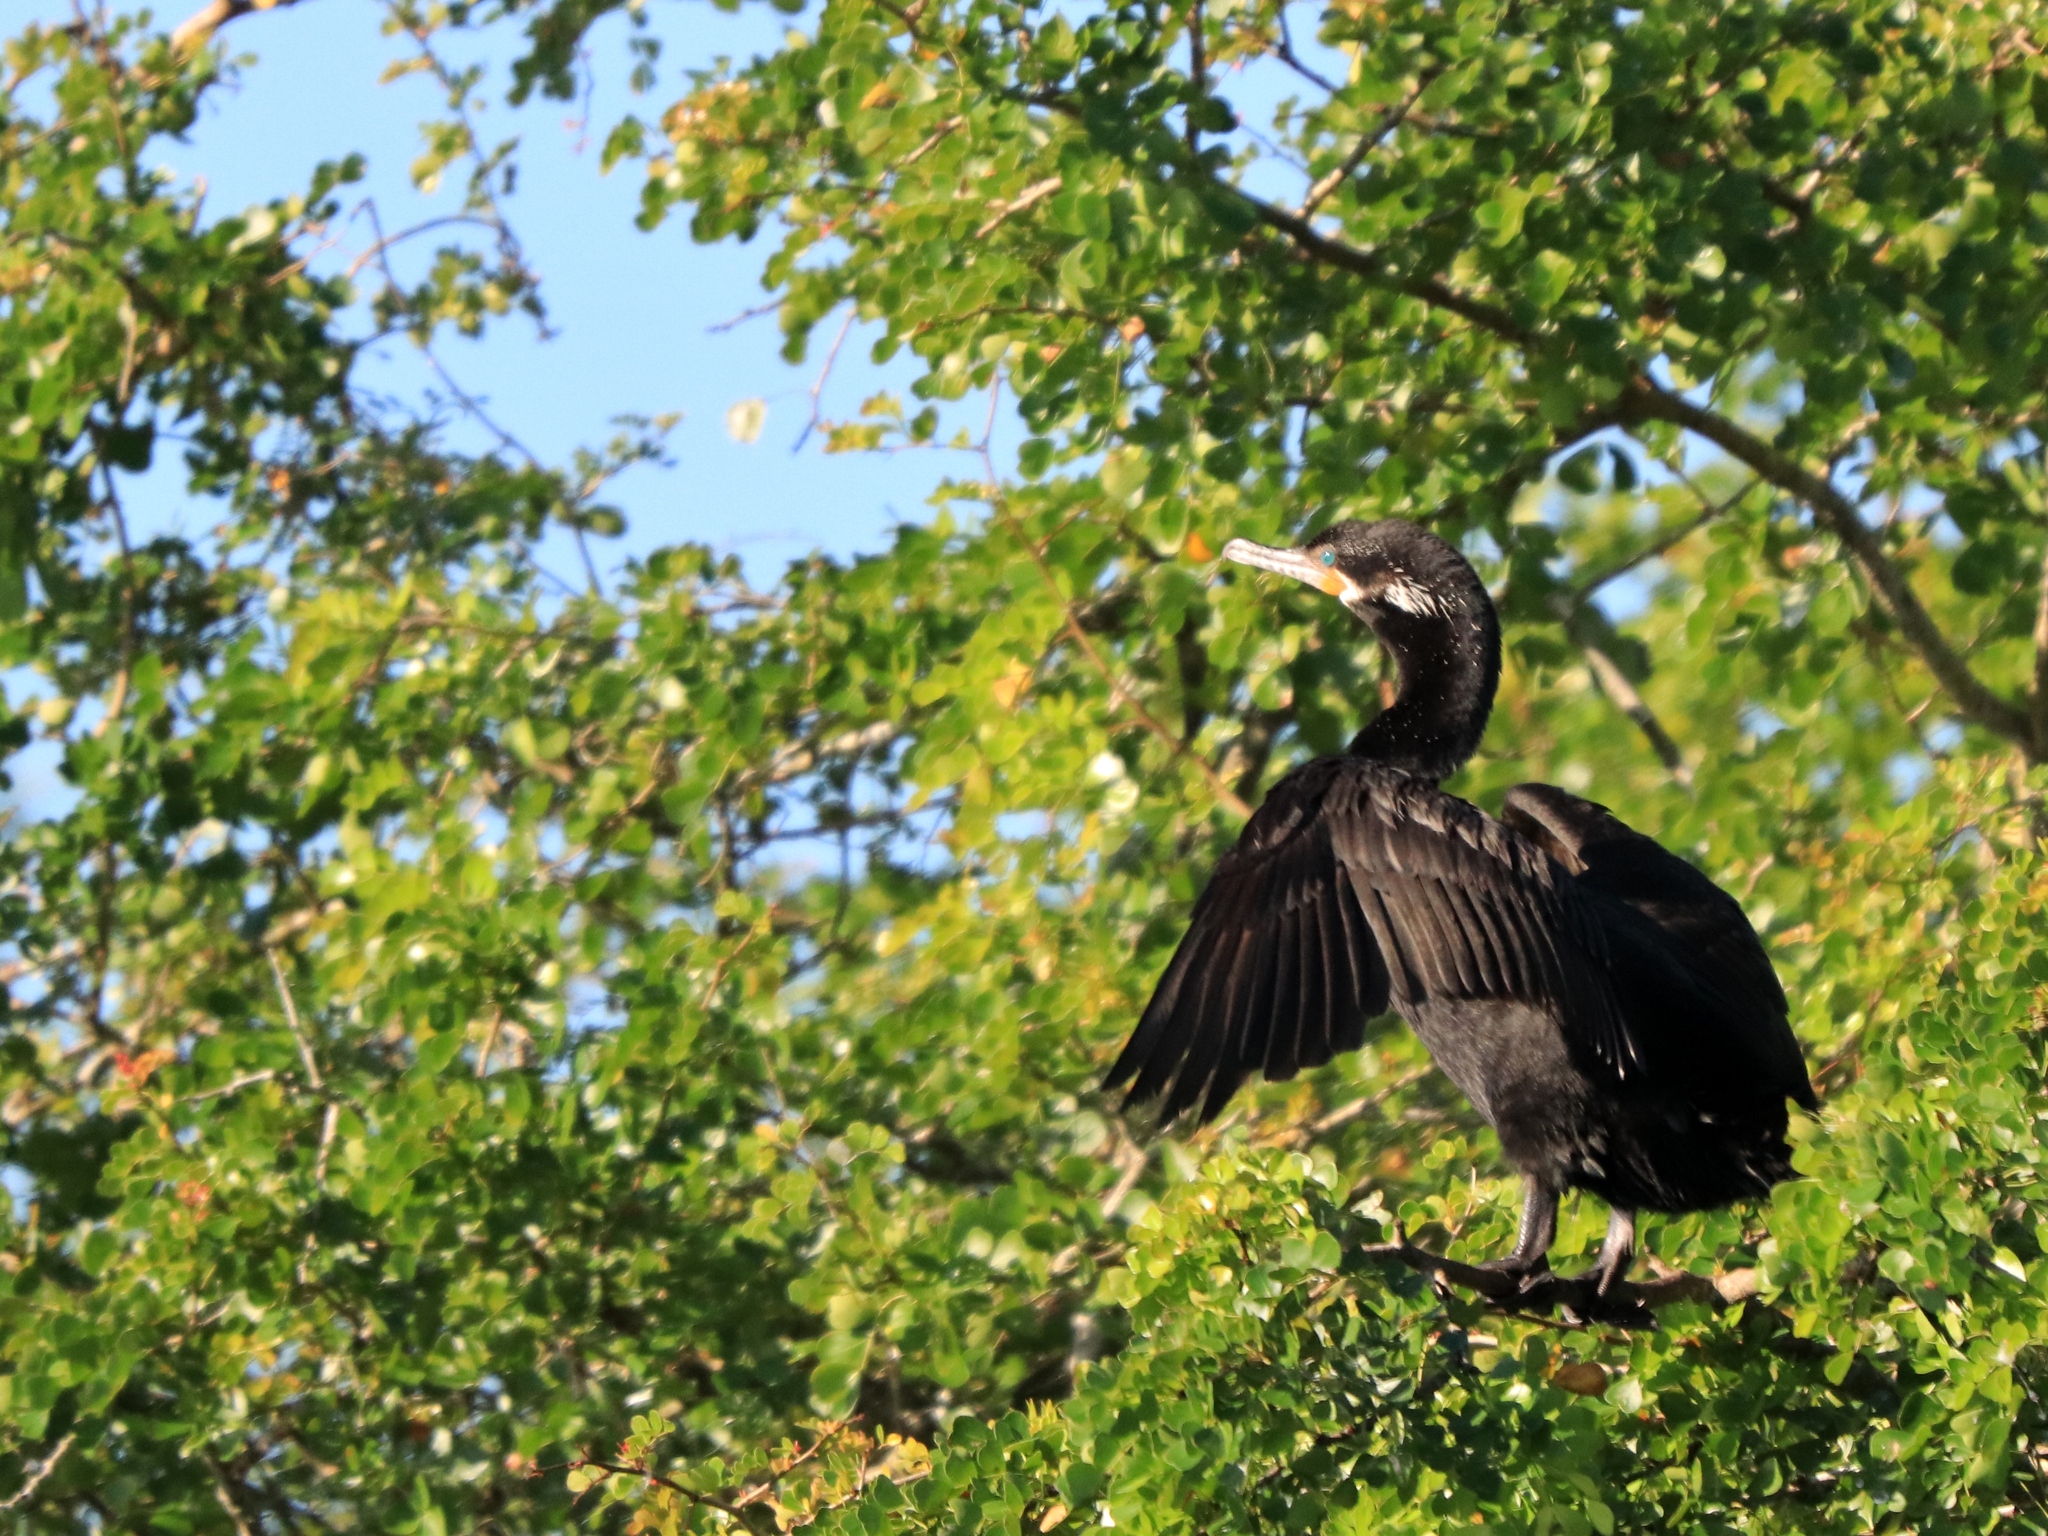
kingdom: Animalia
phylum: Chordata
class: Aves
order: Suliformes
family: Phalacrocoracidae
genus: Phalacrocorax
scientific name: Phalacrocorax brasilianus
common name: Neotropic cormorant
